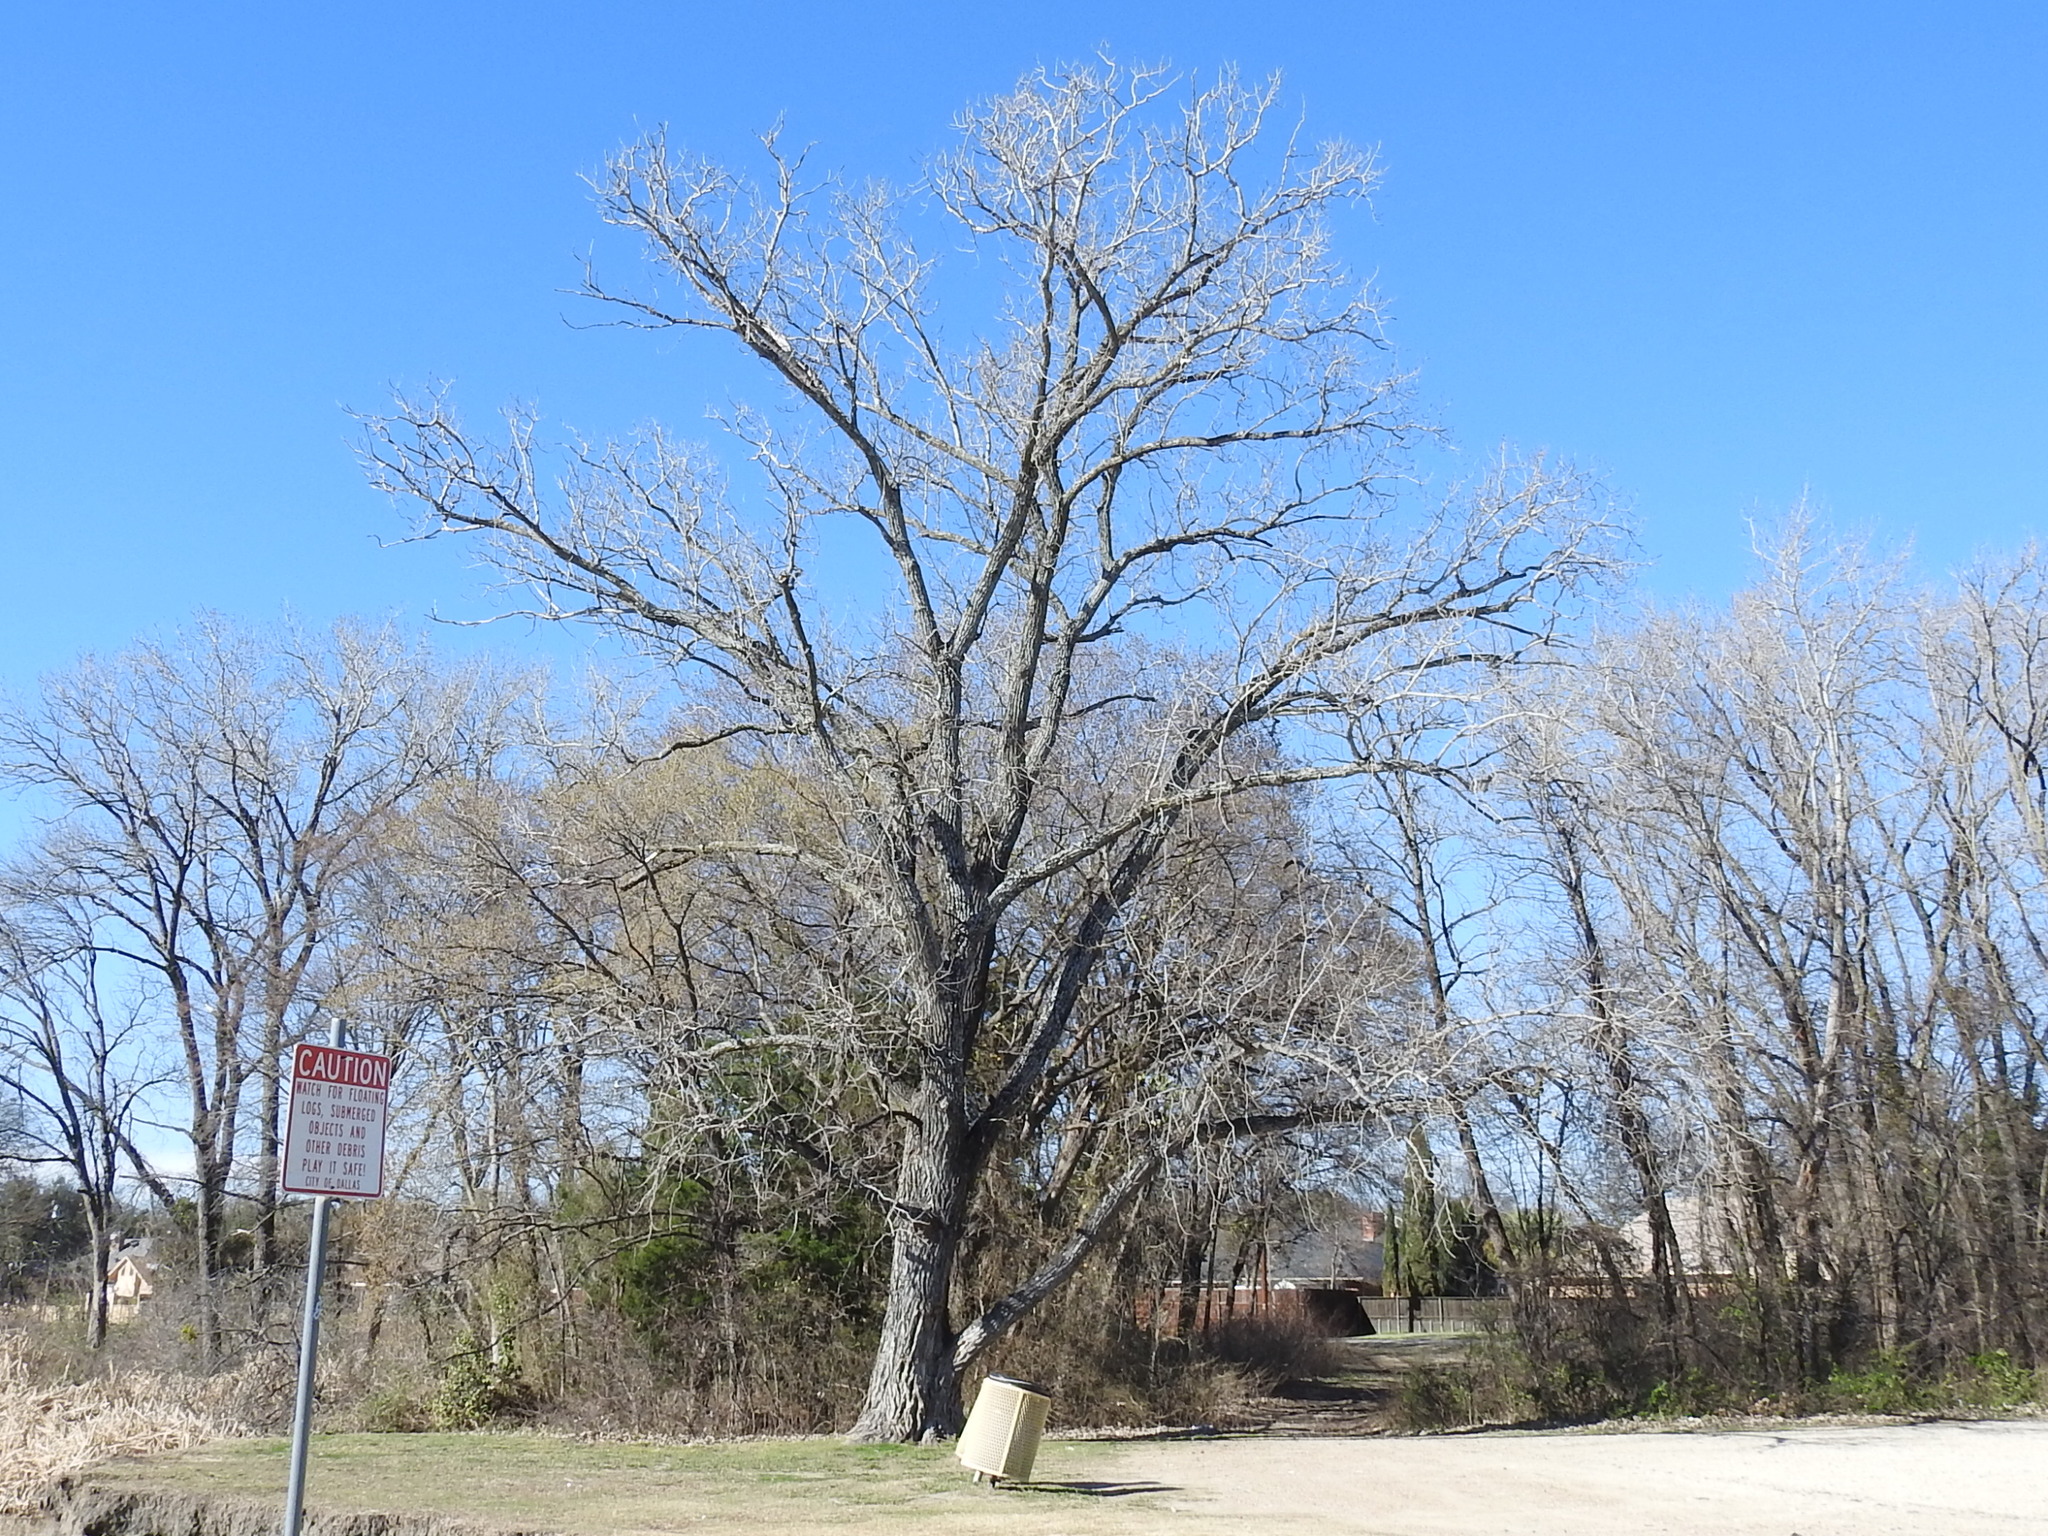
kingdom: Plantae
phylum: Tracheophyta
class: Magnoliopsida
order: Malpighiales
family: Salicaceae
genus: Populus
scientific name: Populus deltoides
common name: Eastern cottonwood
